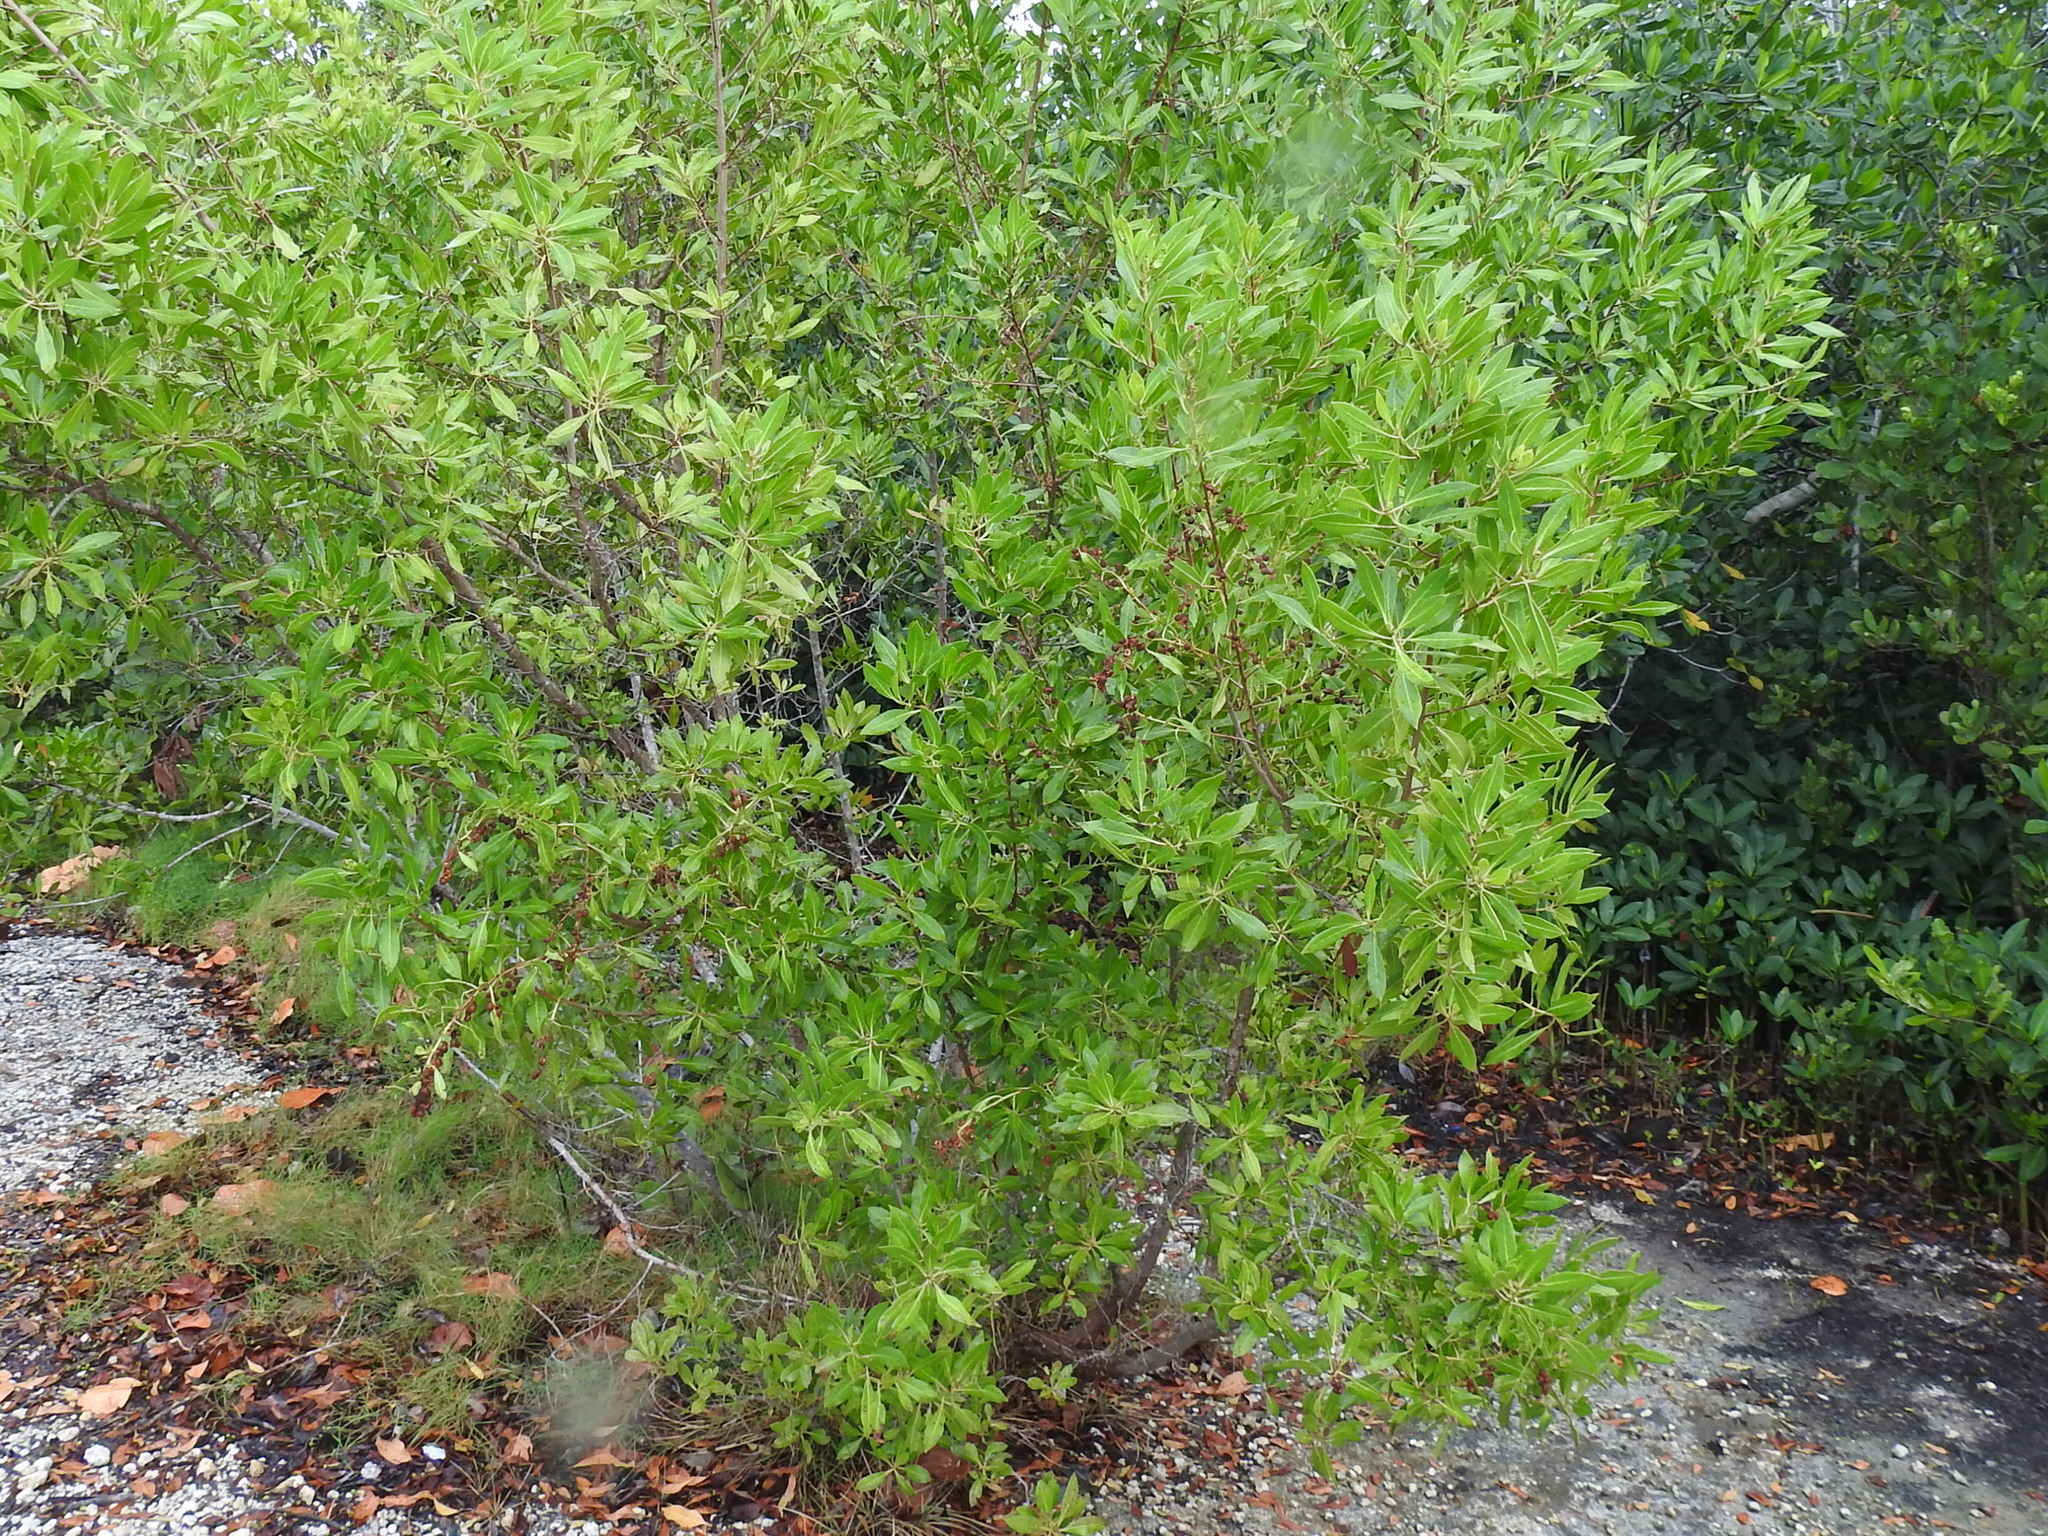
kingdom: Plantae
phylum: Tracheophyta
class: Magnoliopsida
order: Myrtales
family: Combretaceae
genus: Conocarpus
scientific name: Conocarpus erectus
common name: Button mangrove
